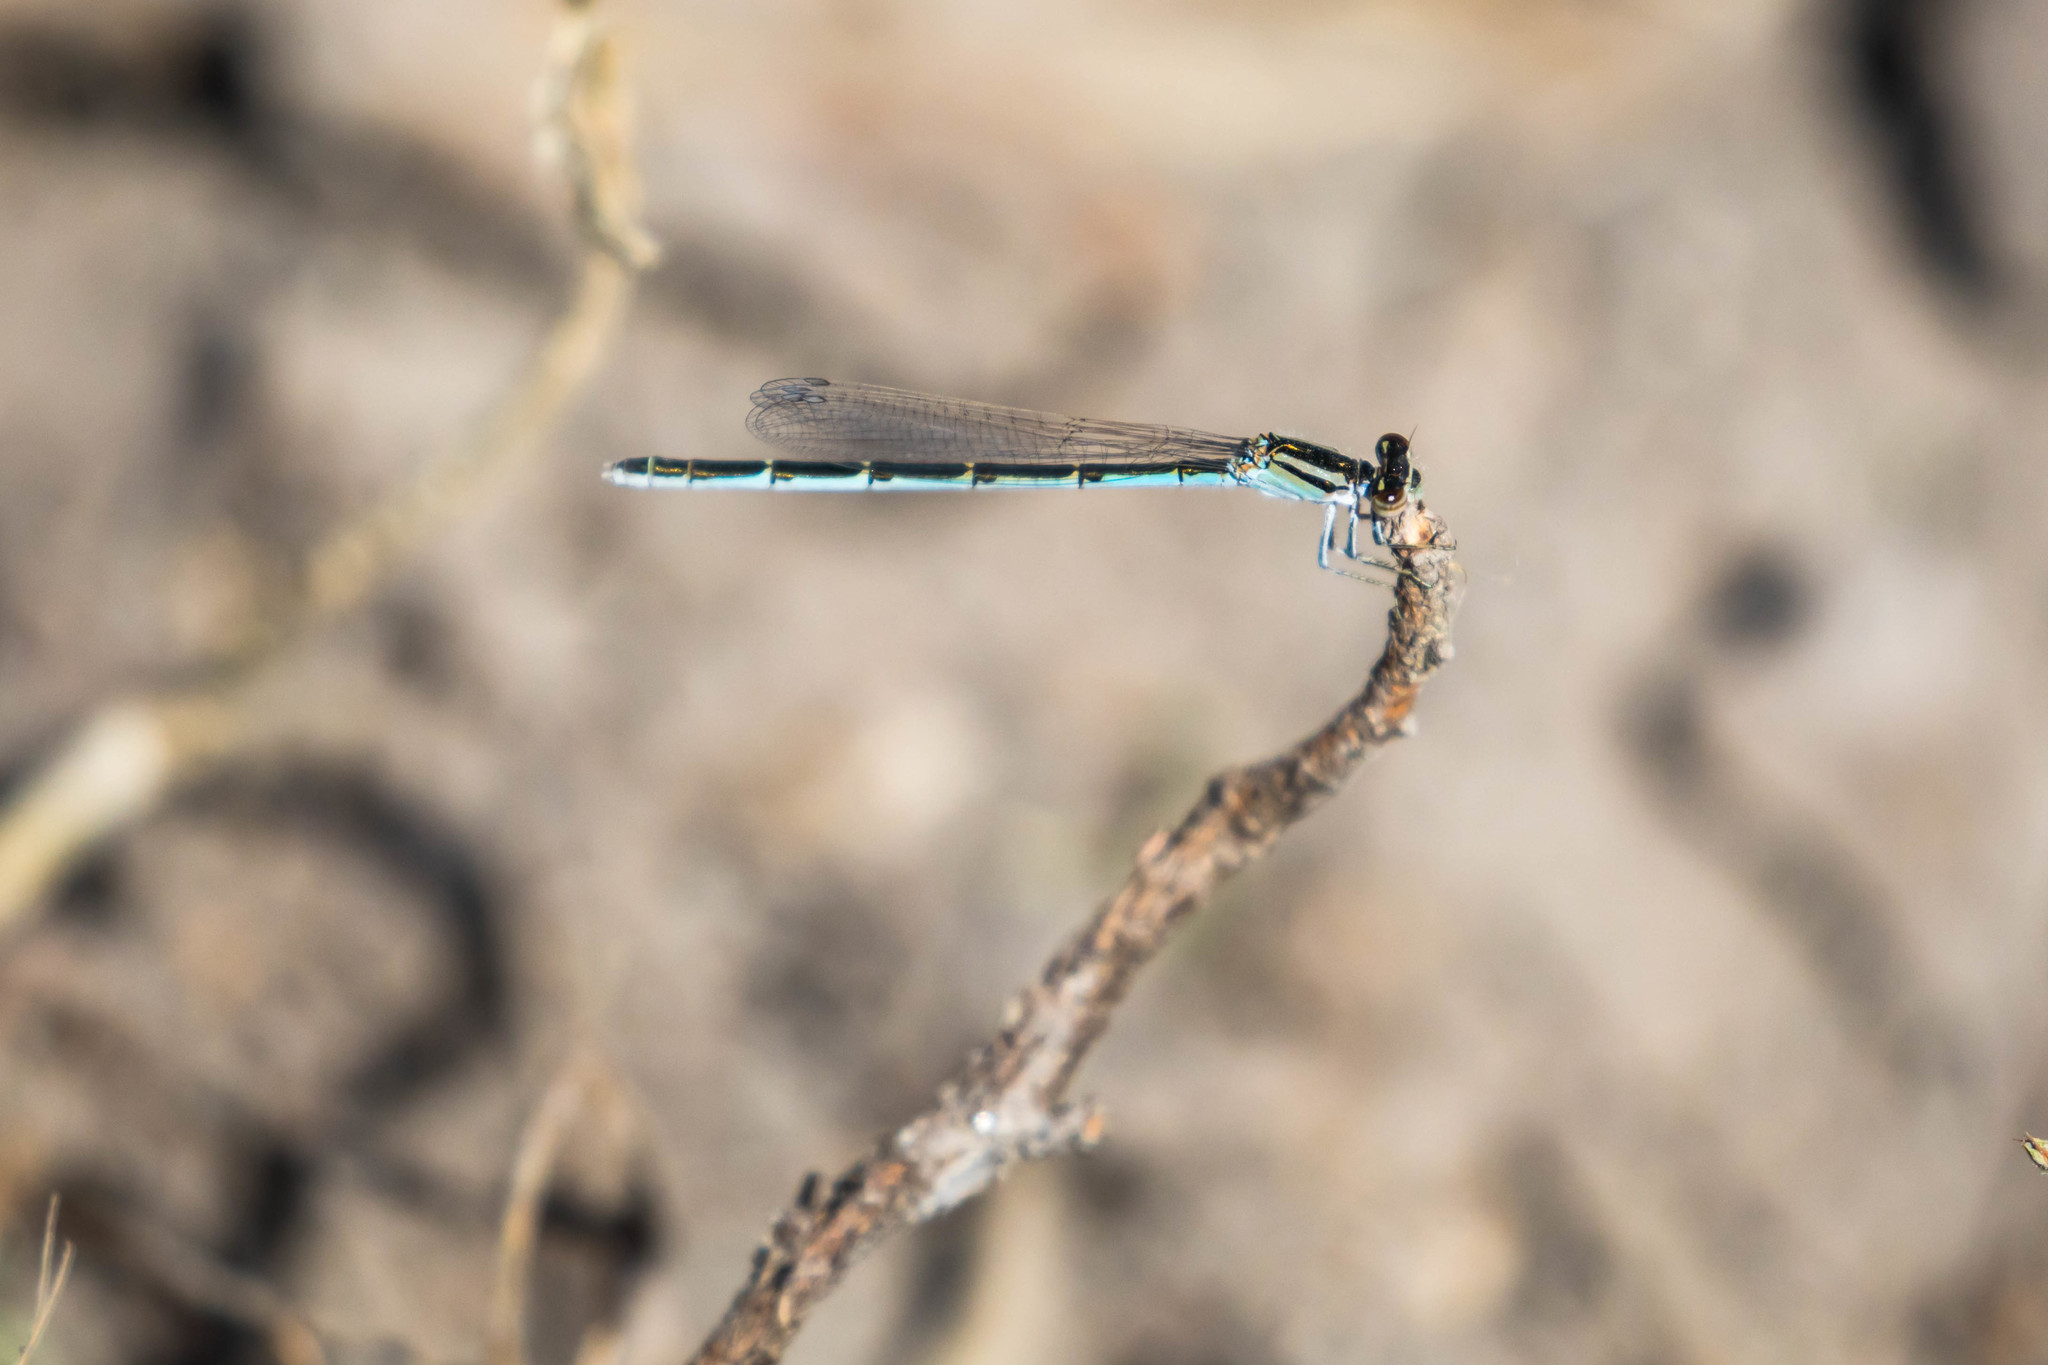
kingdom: Animalia
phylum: Arthropoda
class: Insecta
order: Odonata
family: Coenagrionidae
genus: Enallagma
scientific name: Enallagma civile
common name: Damselfly
